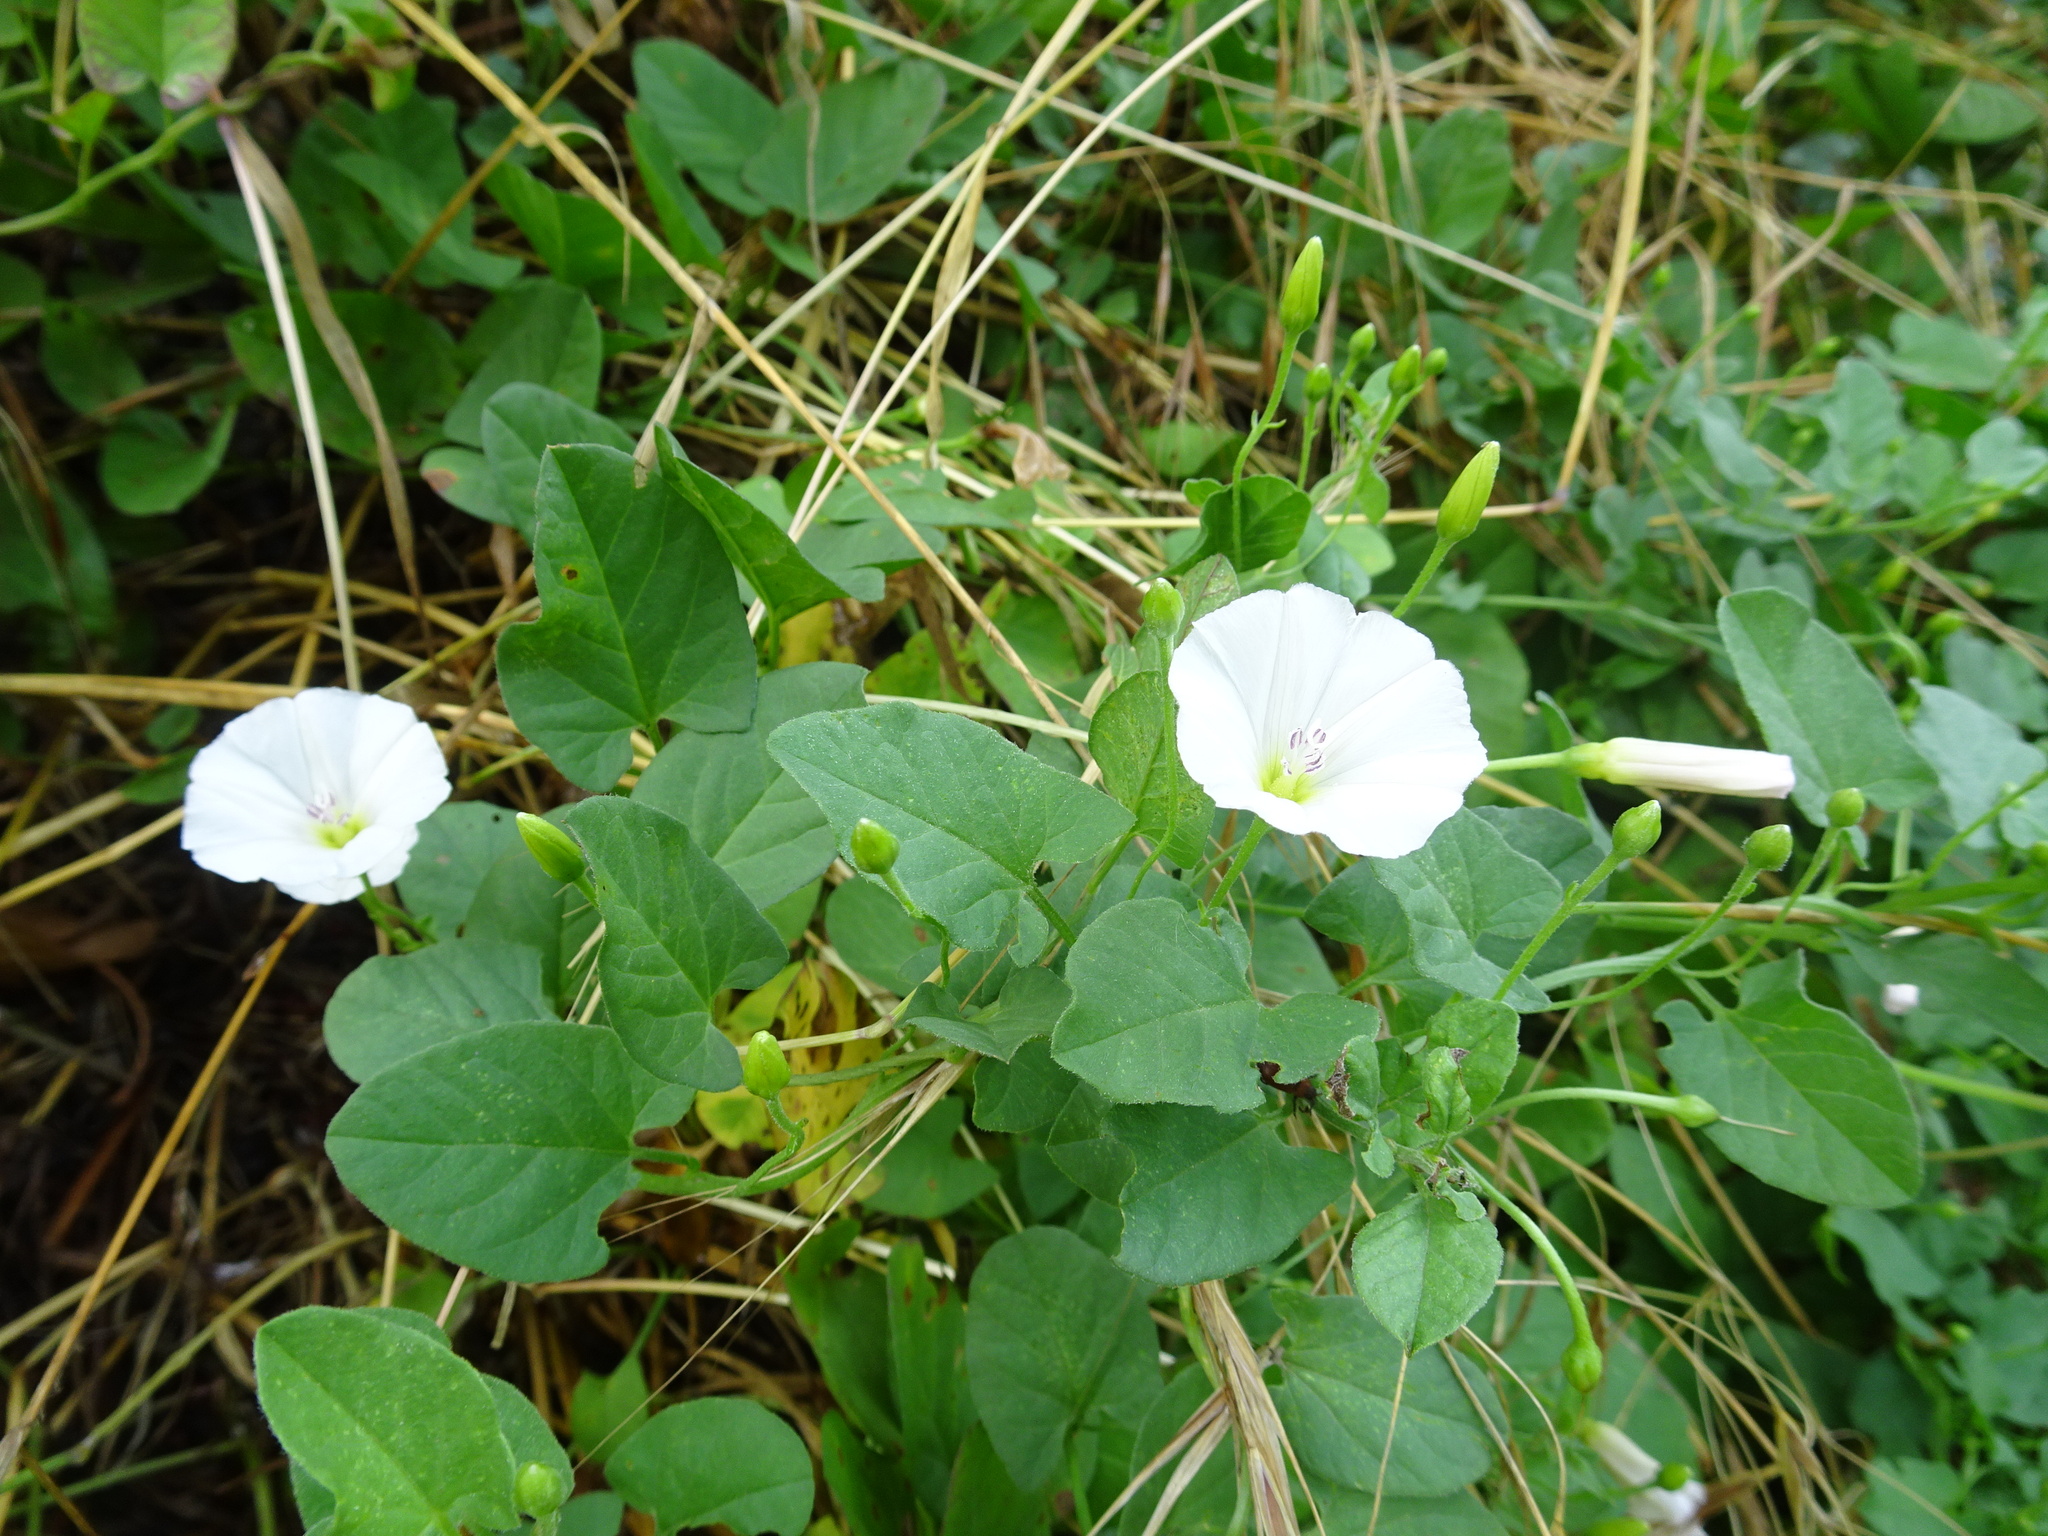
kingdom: Plantae
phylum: Tracheophyta
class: Magnoliopsida
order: Solanales
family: Convolvulaceae
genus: Convolvulus
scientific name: Convolvulus arvensis
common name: Field bindweed
